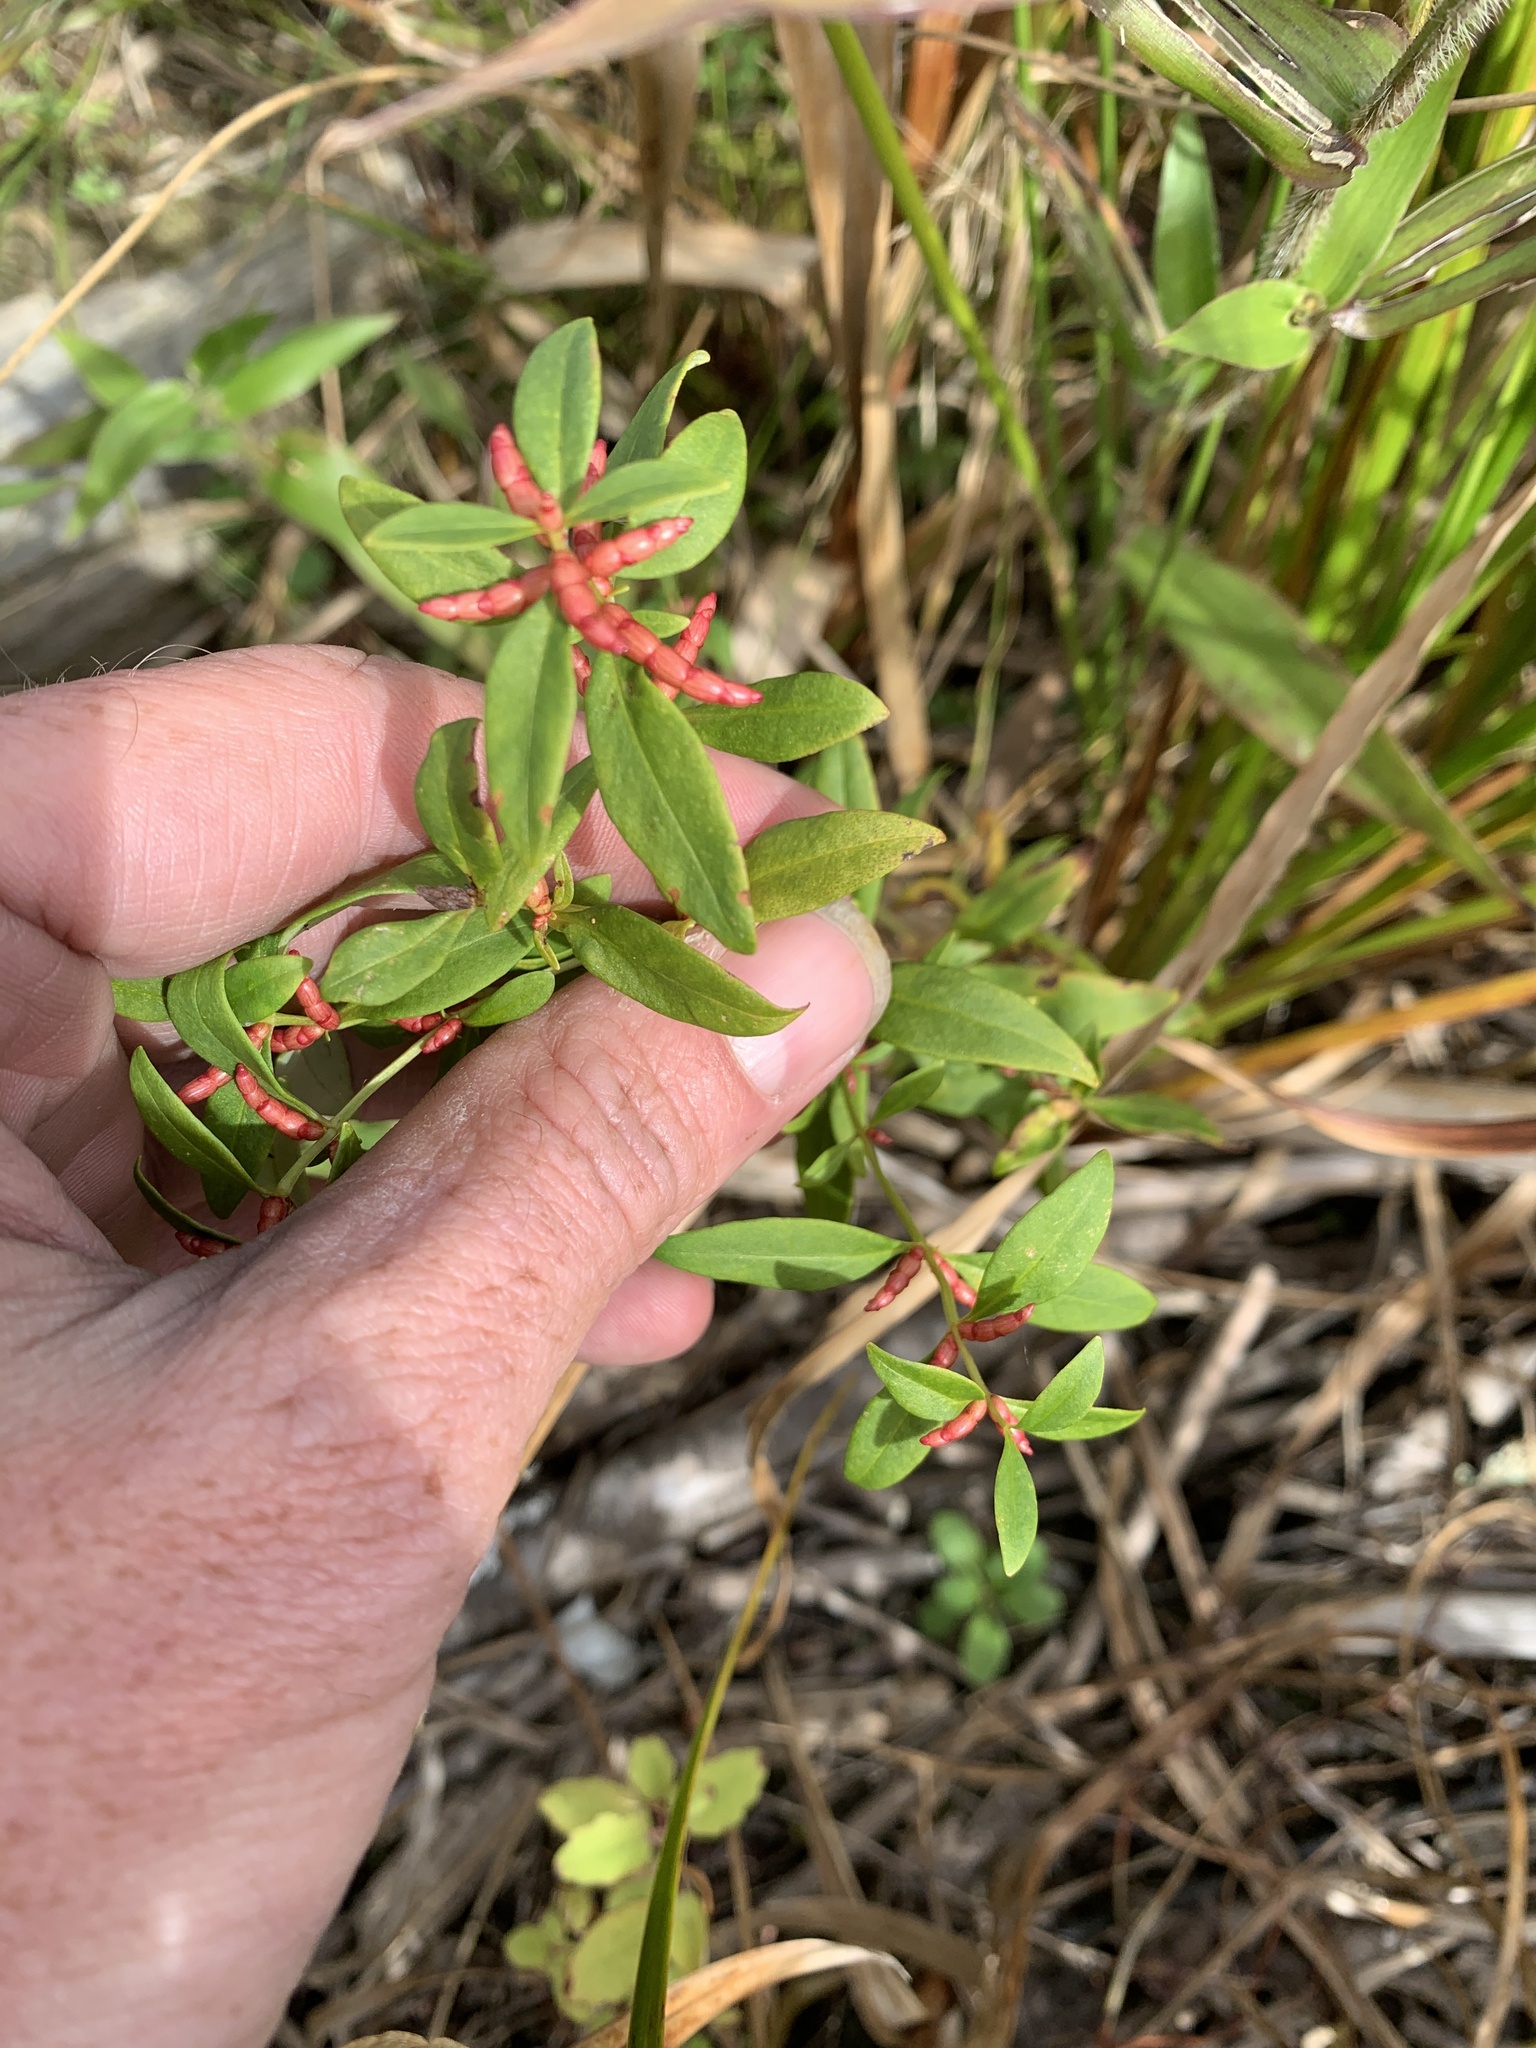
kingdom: Plantae
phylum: Tracheophyta
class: Magnoliopsida
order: Ericales
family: Primulaceae
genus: Lysimachia
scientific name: Lysimachia terrestris
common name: Lake loosestrife
